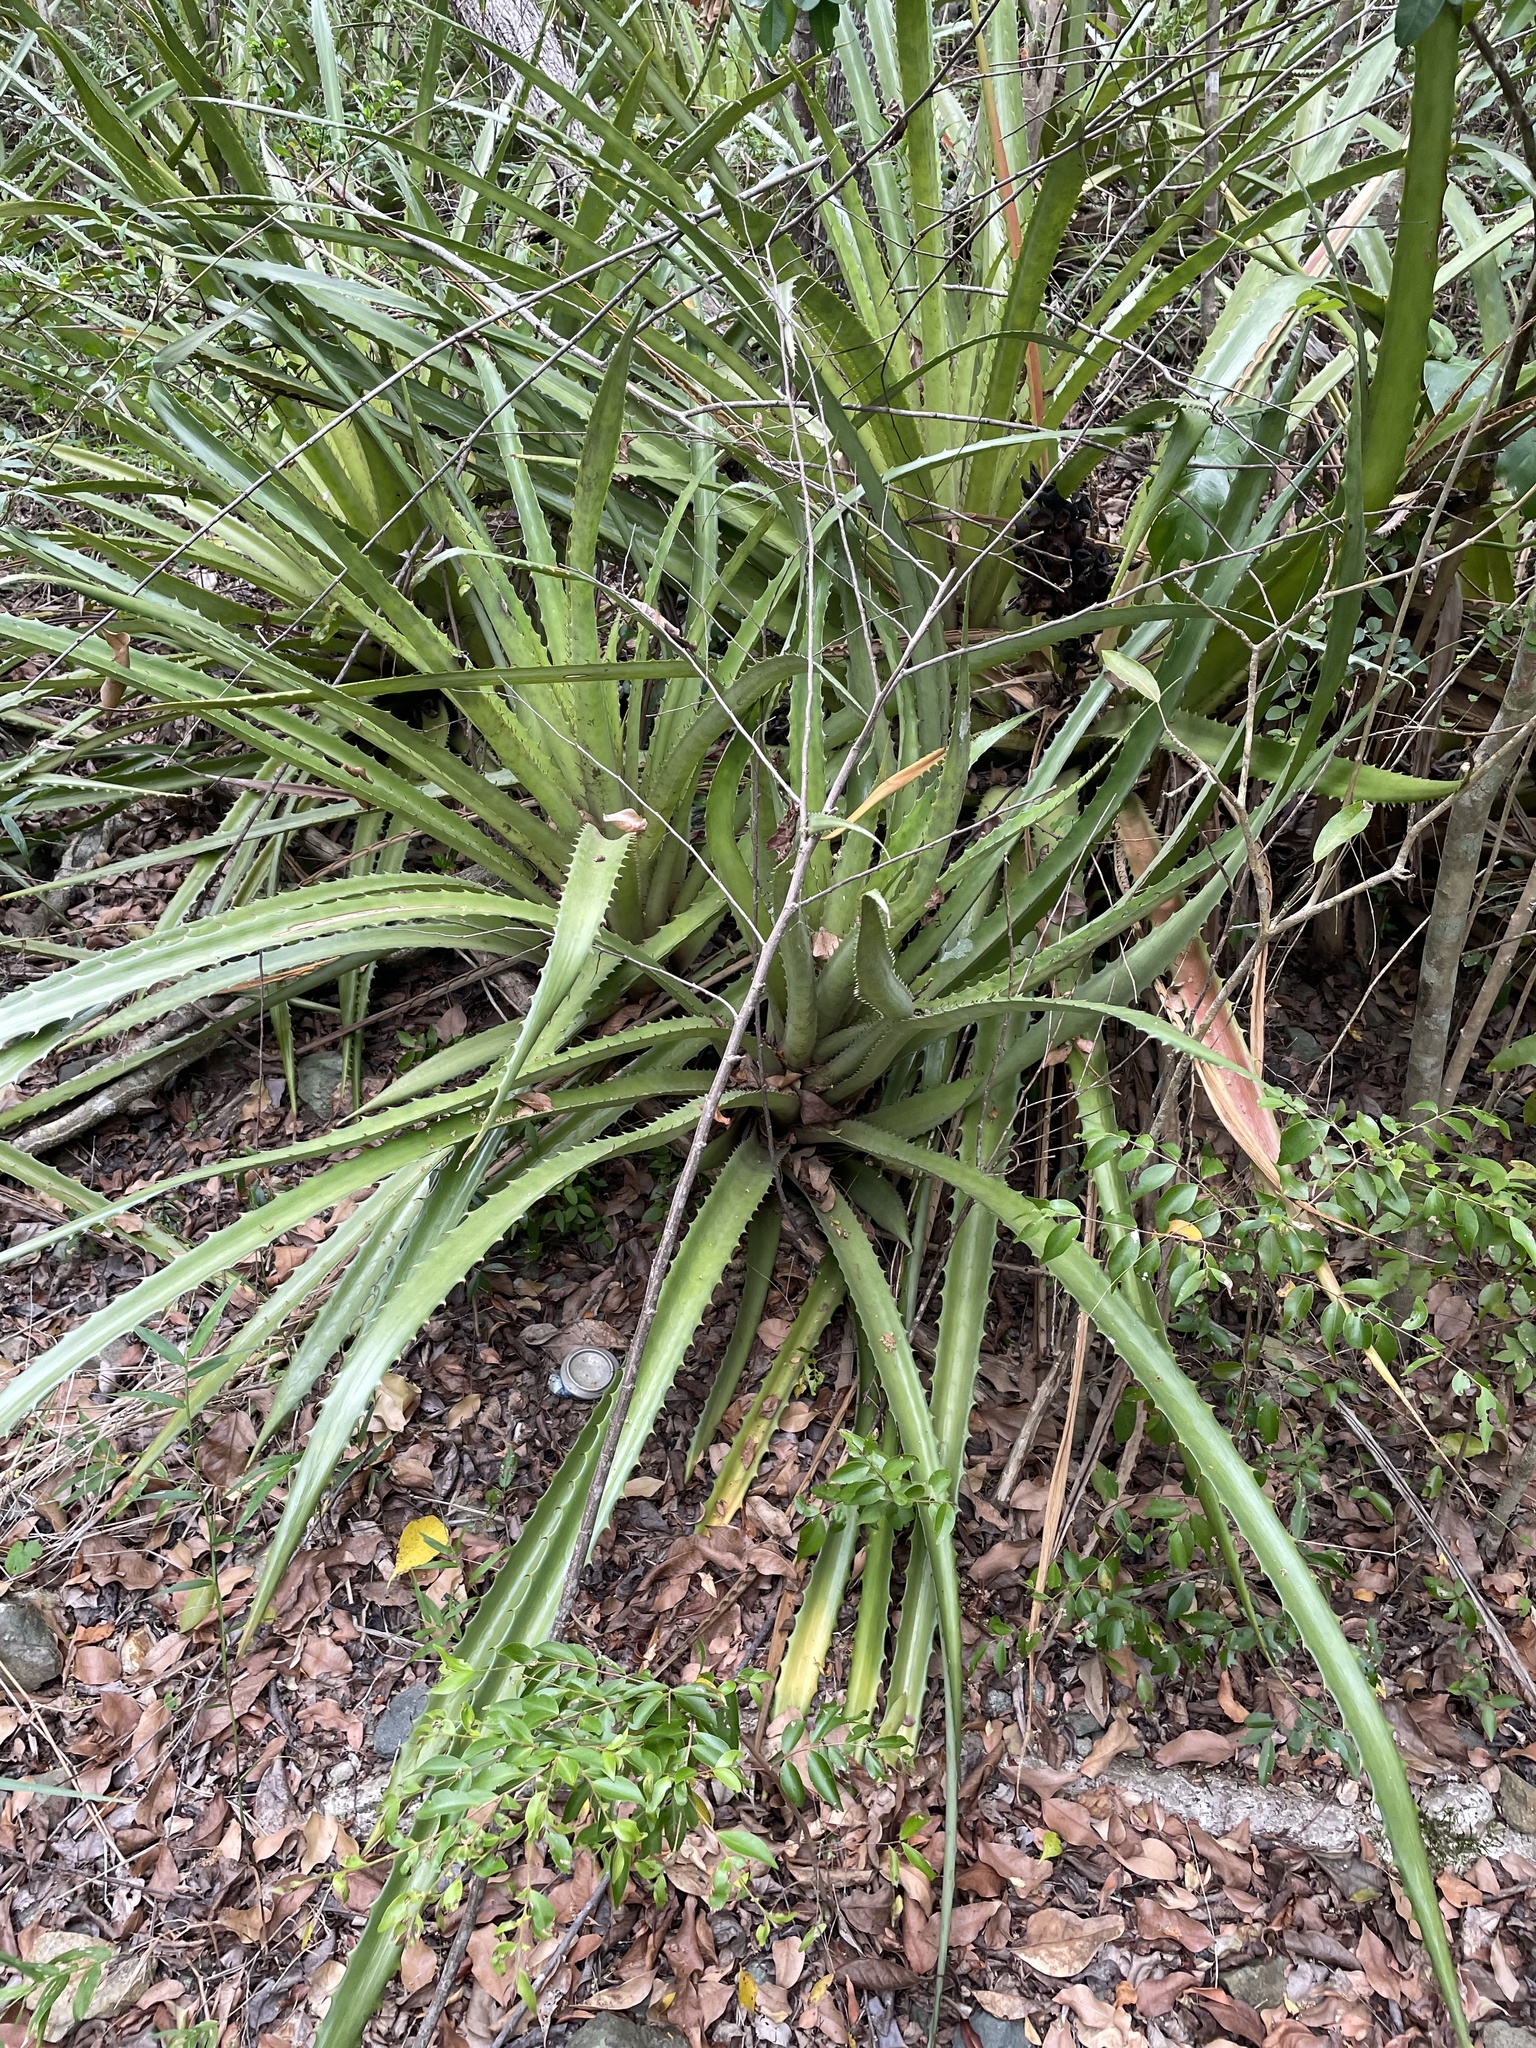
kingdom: Plantae
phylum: Tracheophyta
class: Liliopsida
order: Poales
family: Bromeliaceae
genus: Bromelia
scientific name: Bromelia pinguin
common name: Pinguin
